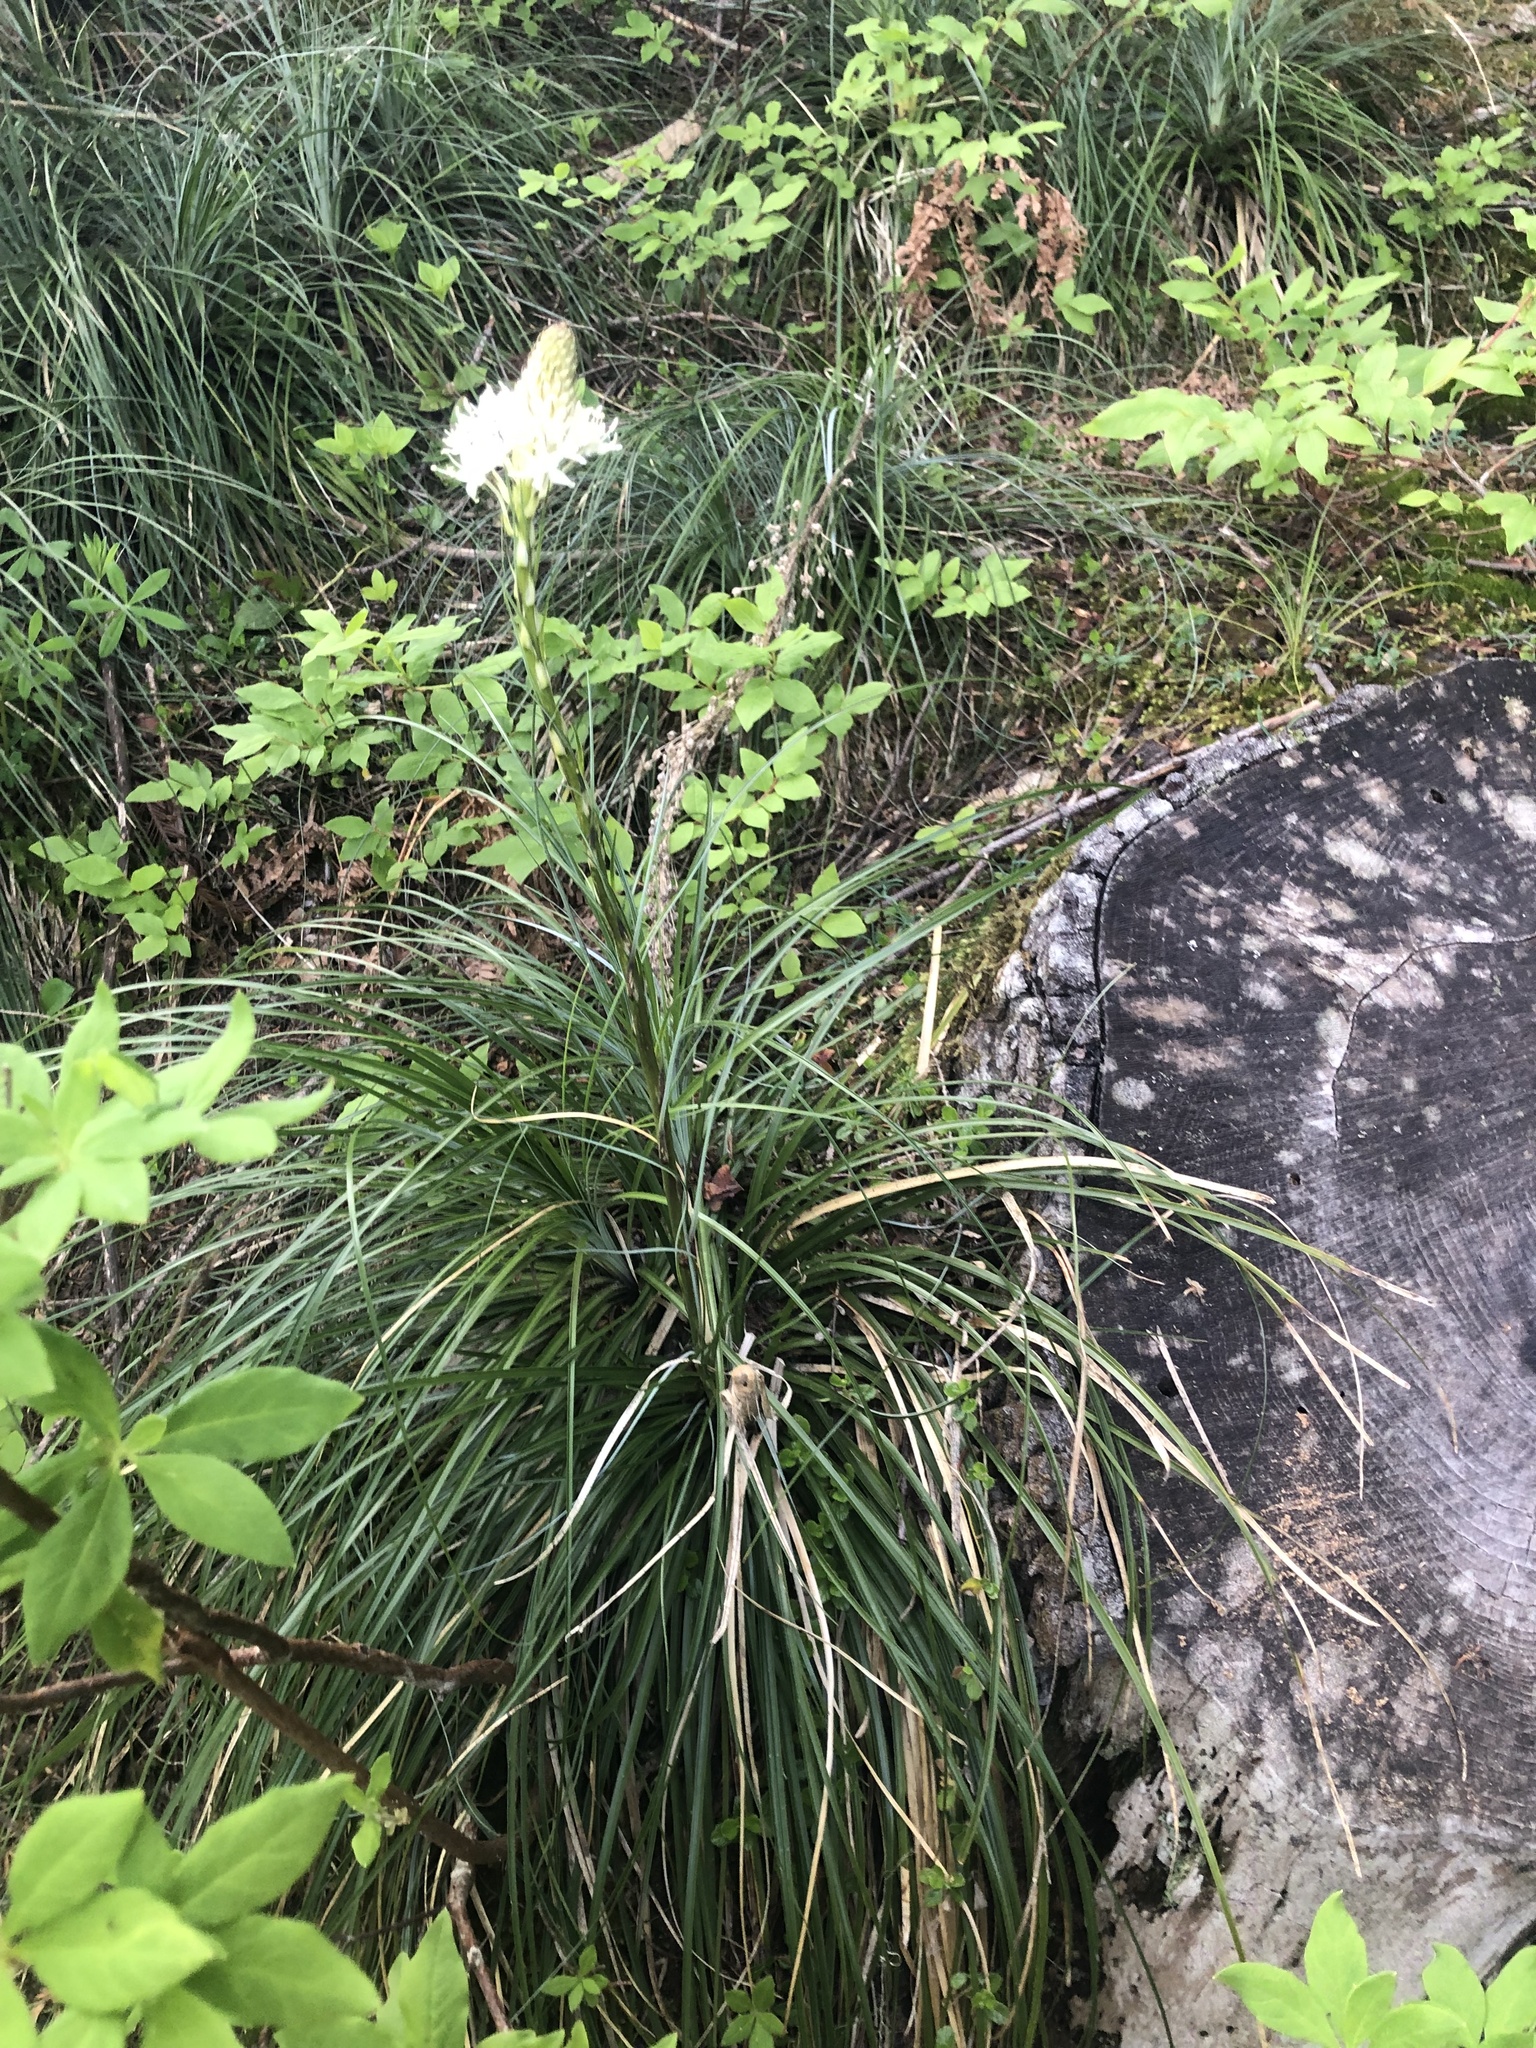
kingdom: Plantae
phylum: Tracheophyta
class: Liliopsida
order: Liliales
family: Melanthiaceae
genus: Xerophyllum
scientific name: Xerophyllum tenax
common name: Bear-grass
